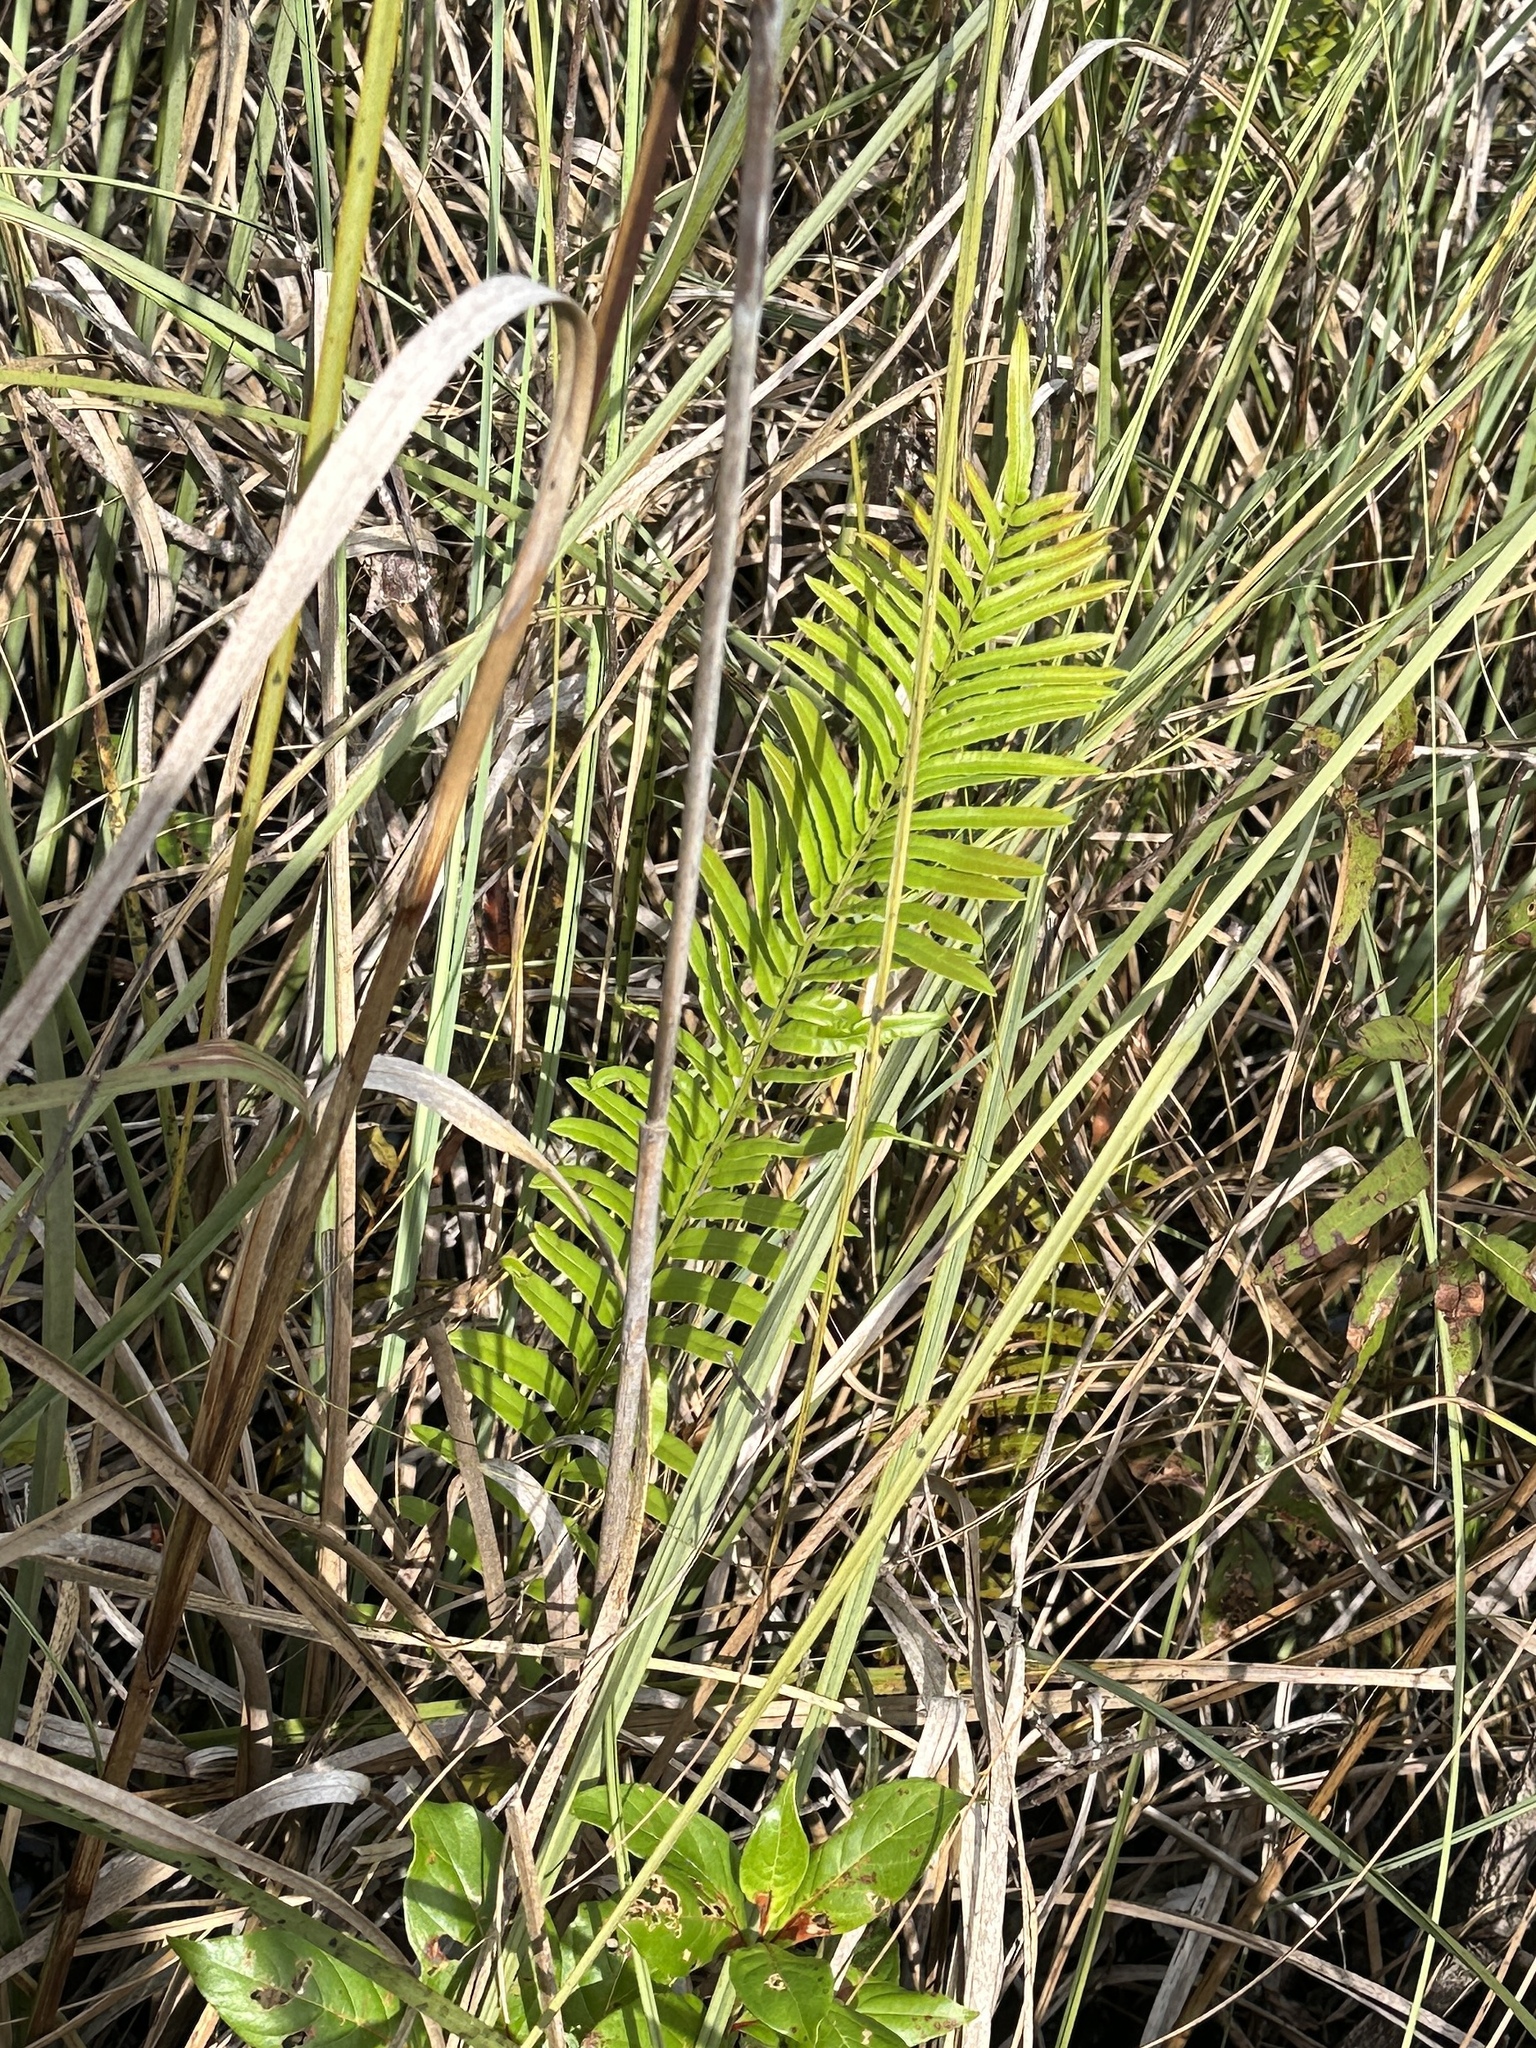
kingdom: Plantae
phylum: Tracheophyta
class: Polypodiopsida
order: Polypodiales
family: Blechnaceae
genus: Telmatoblechnum
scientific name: Telmatoblechnum serrulatum
